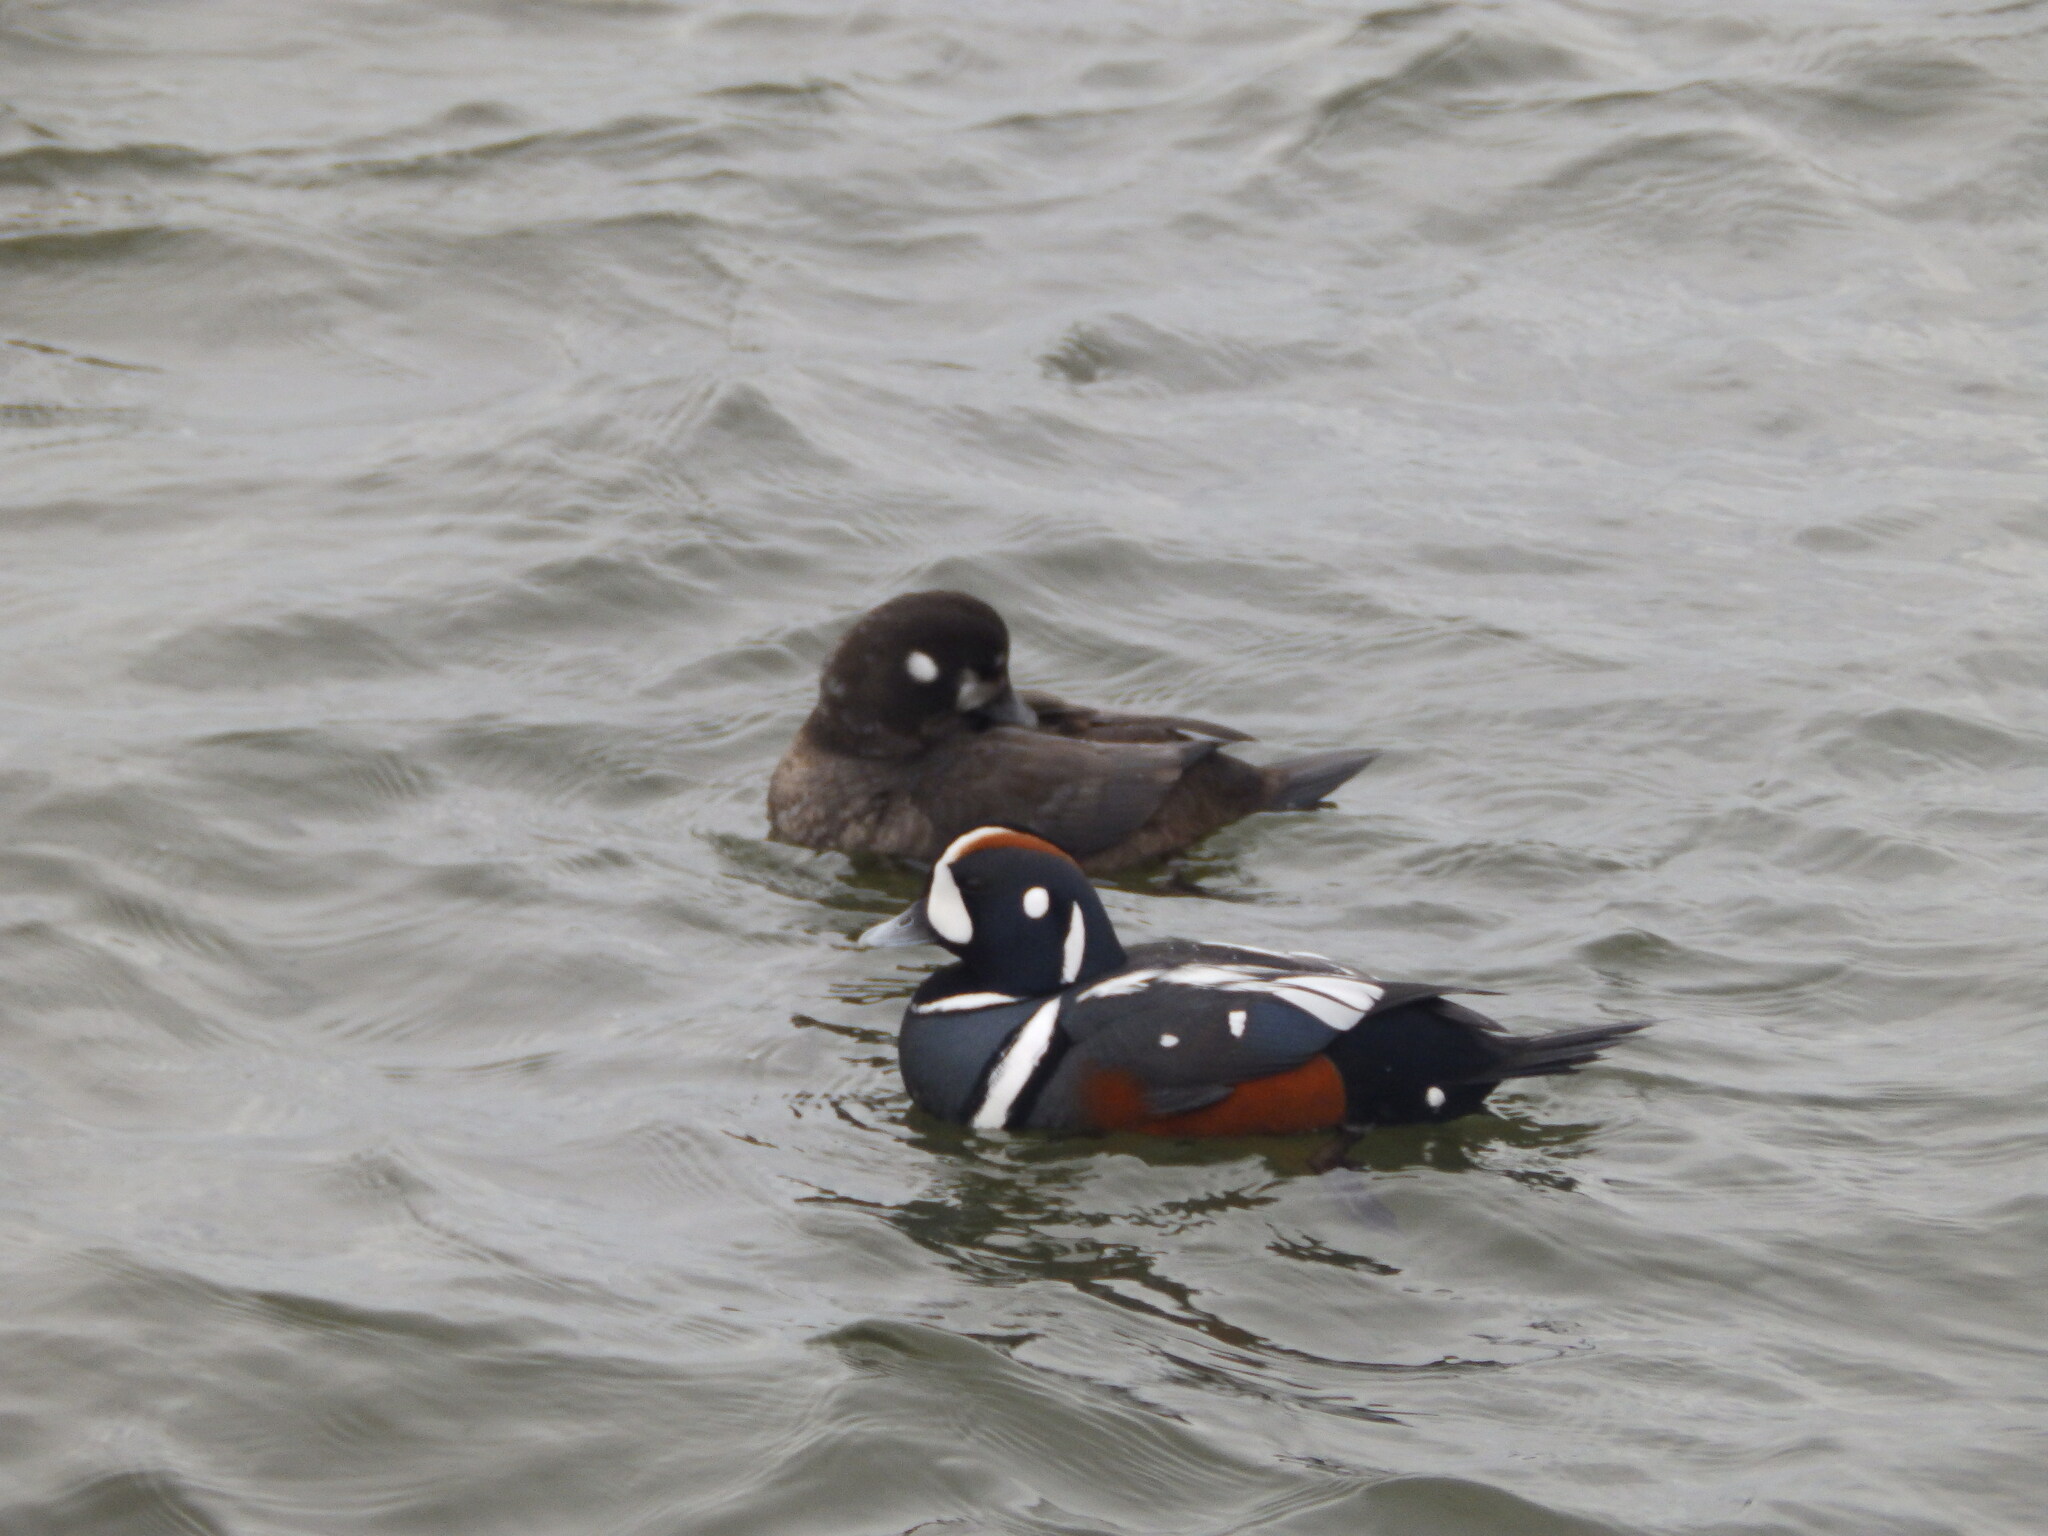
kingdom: Animalia
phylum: Chordata
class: Aves
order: Anseriformes
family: Anatidae
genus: Histrionicus
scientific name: Histrionicus histrionicus
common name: Harlequin duck
